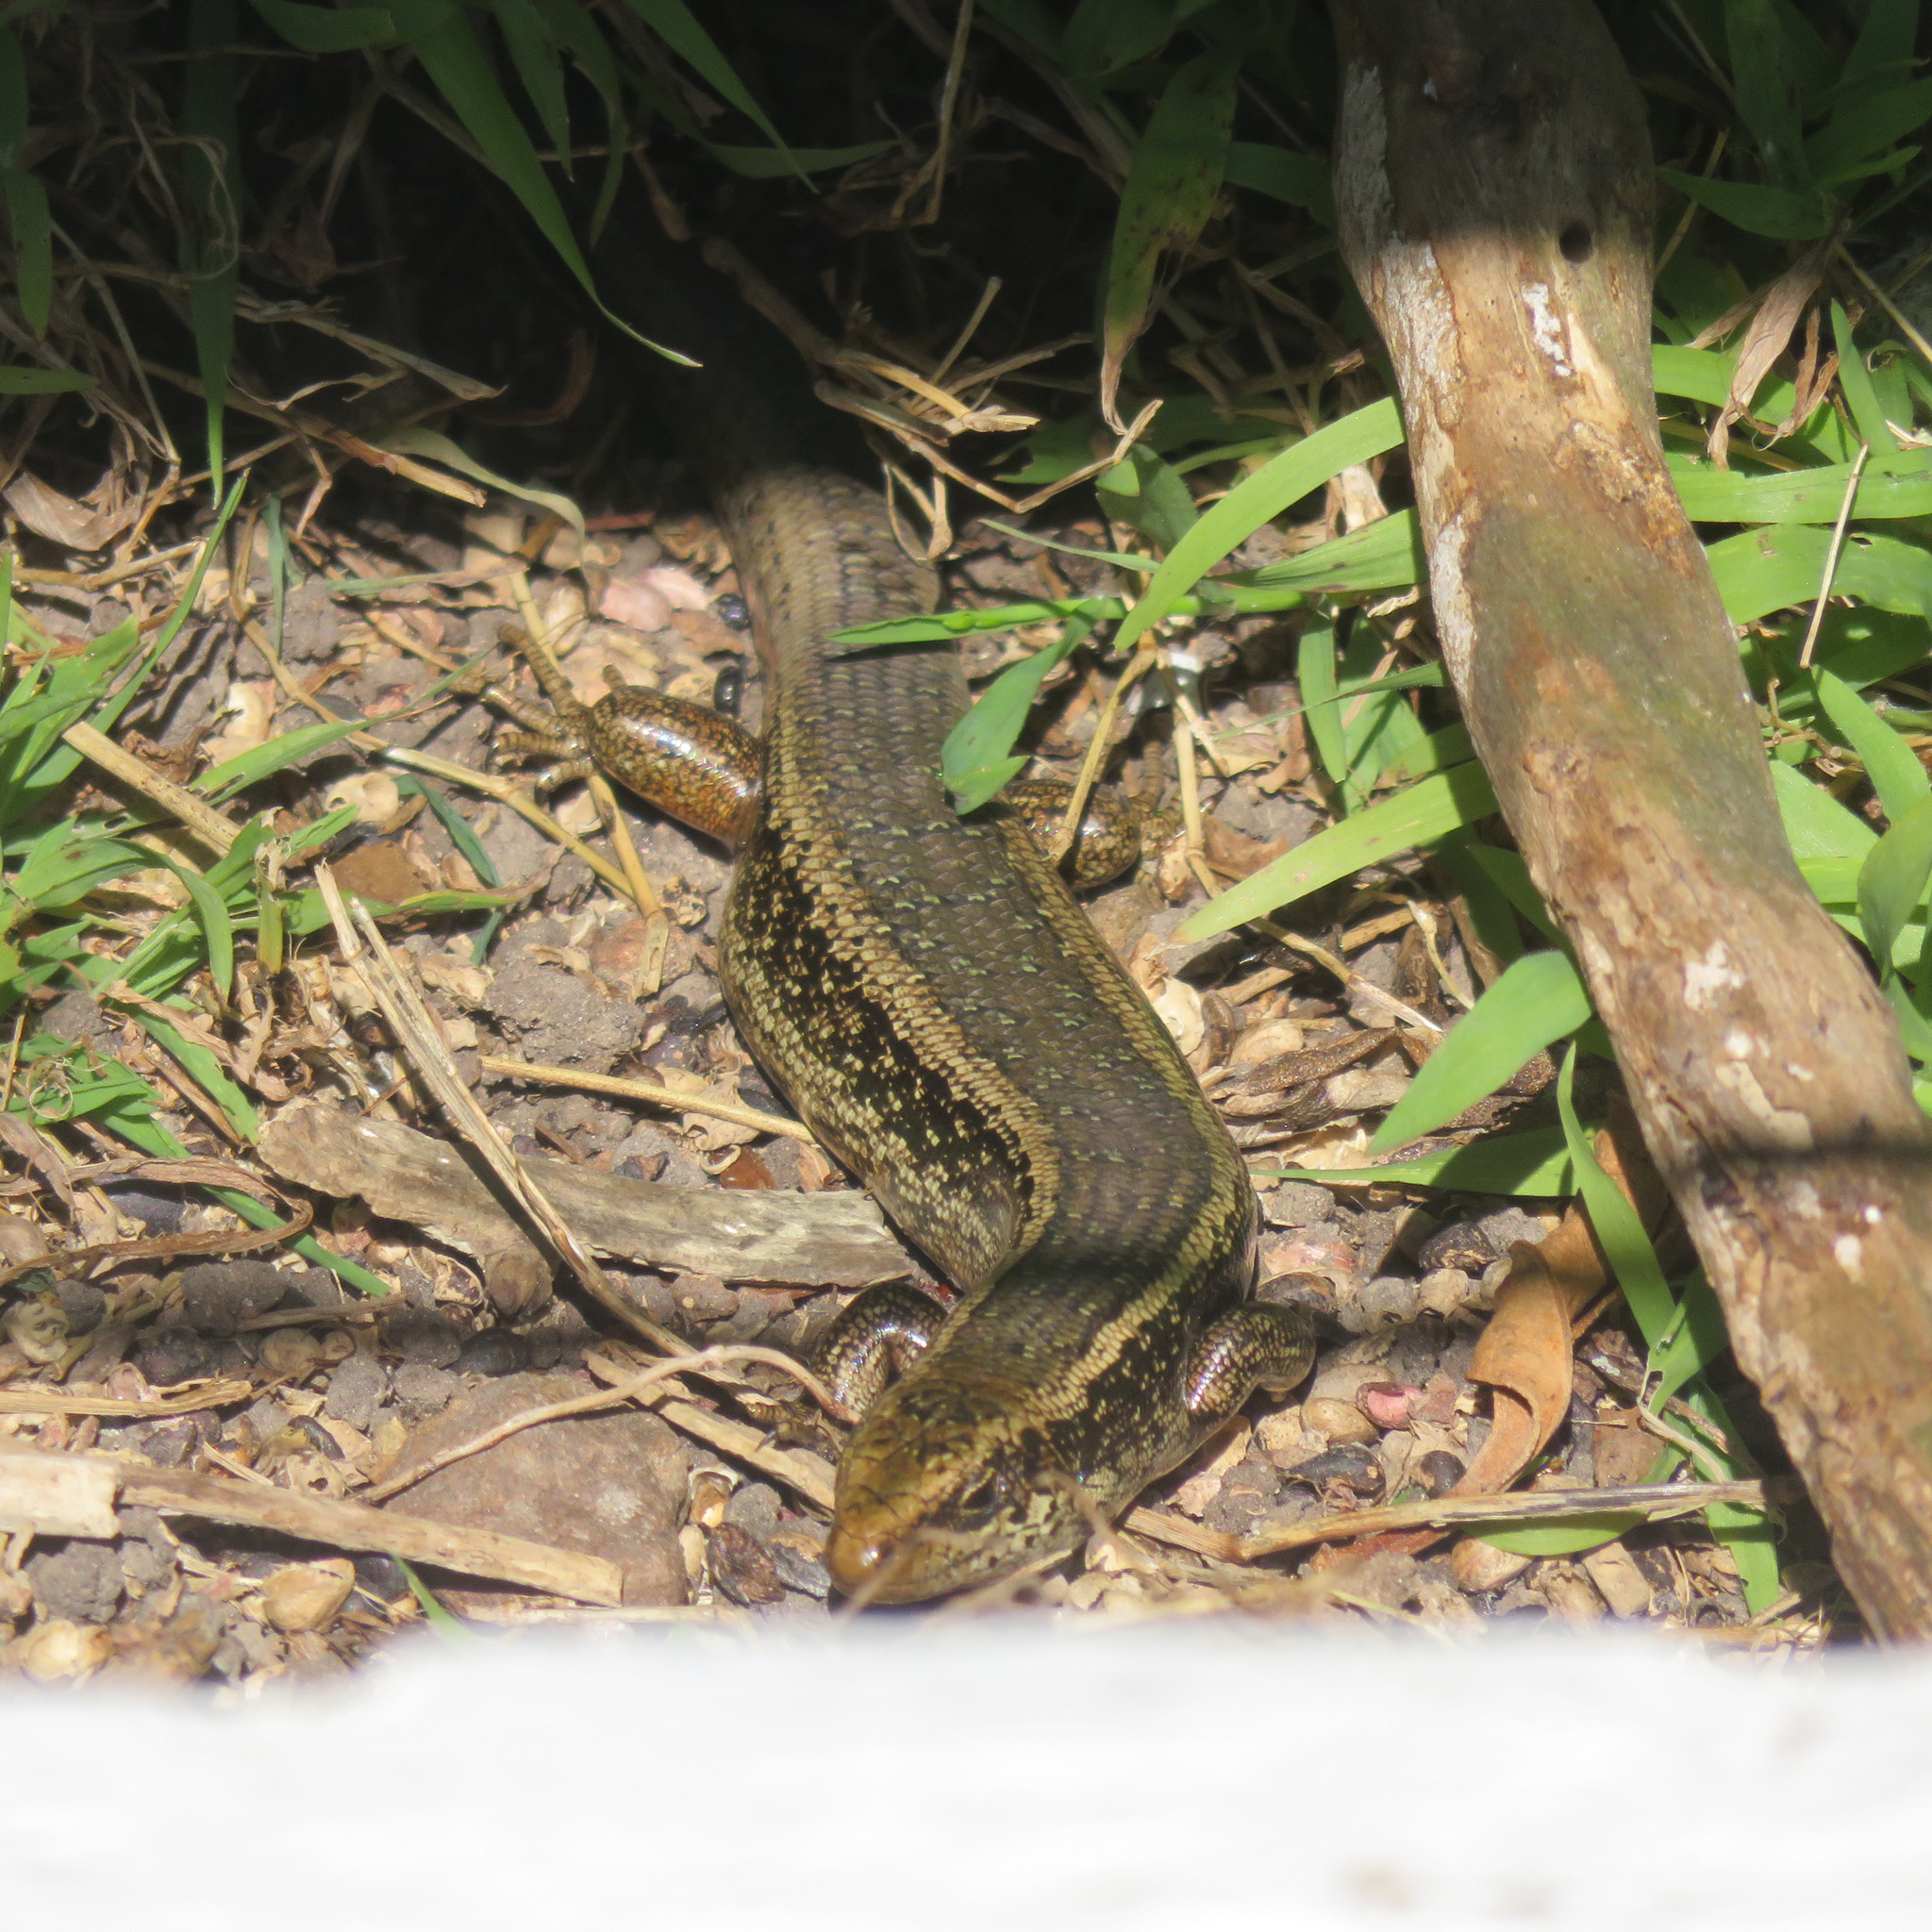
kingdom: Animalia
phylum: Chordata
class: Squamata
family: Scincidae
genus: Oligosoma
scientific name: Oligosoma kokowai
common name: Northern spotted skink
